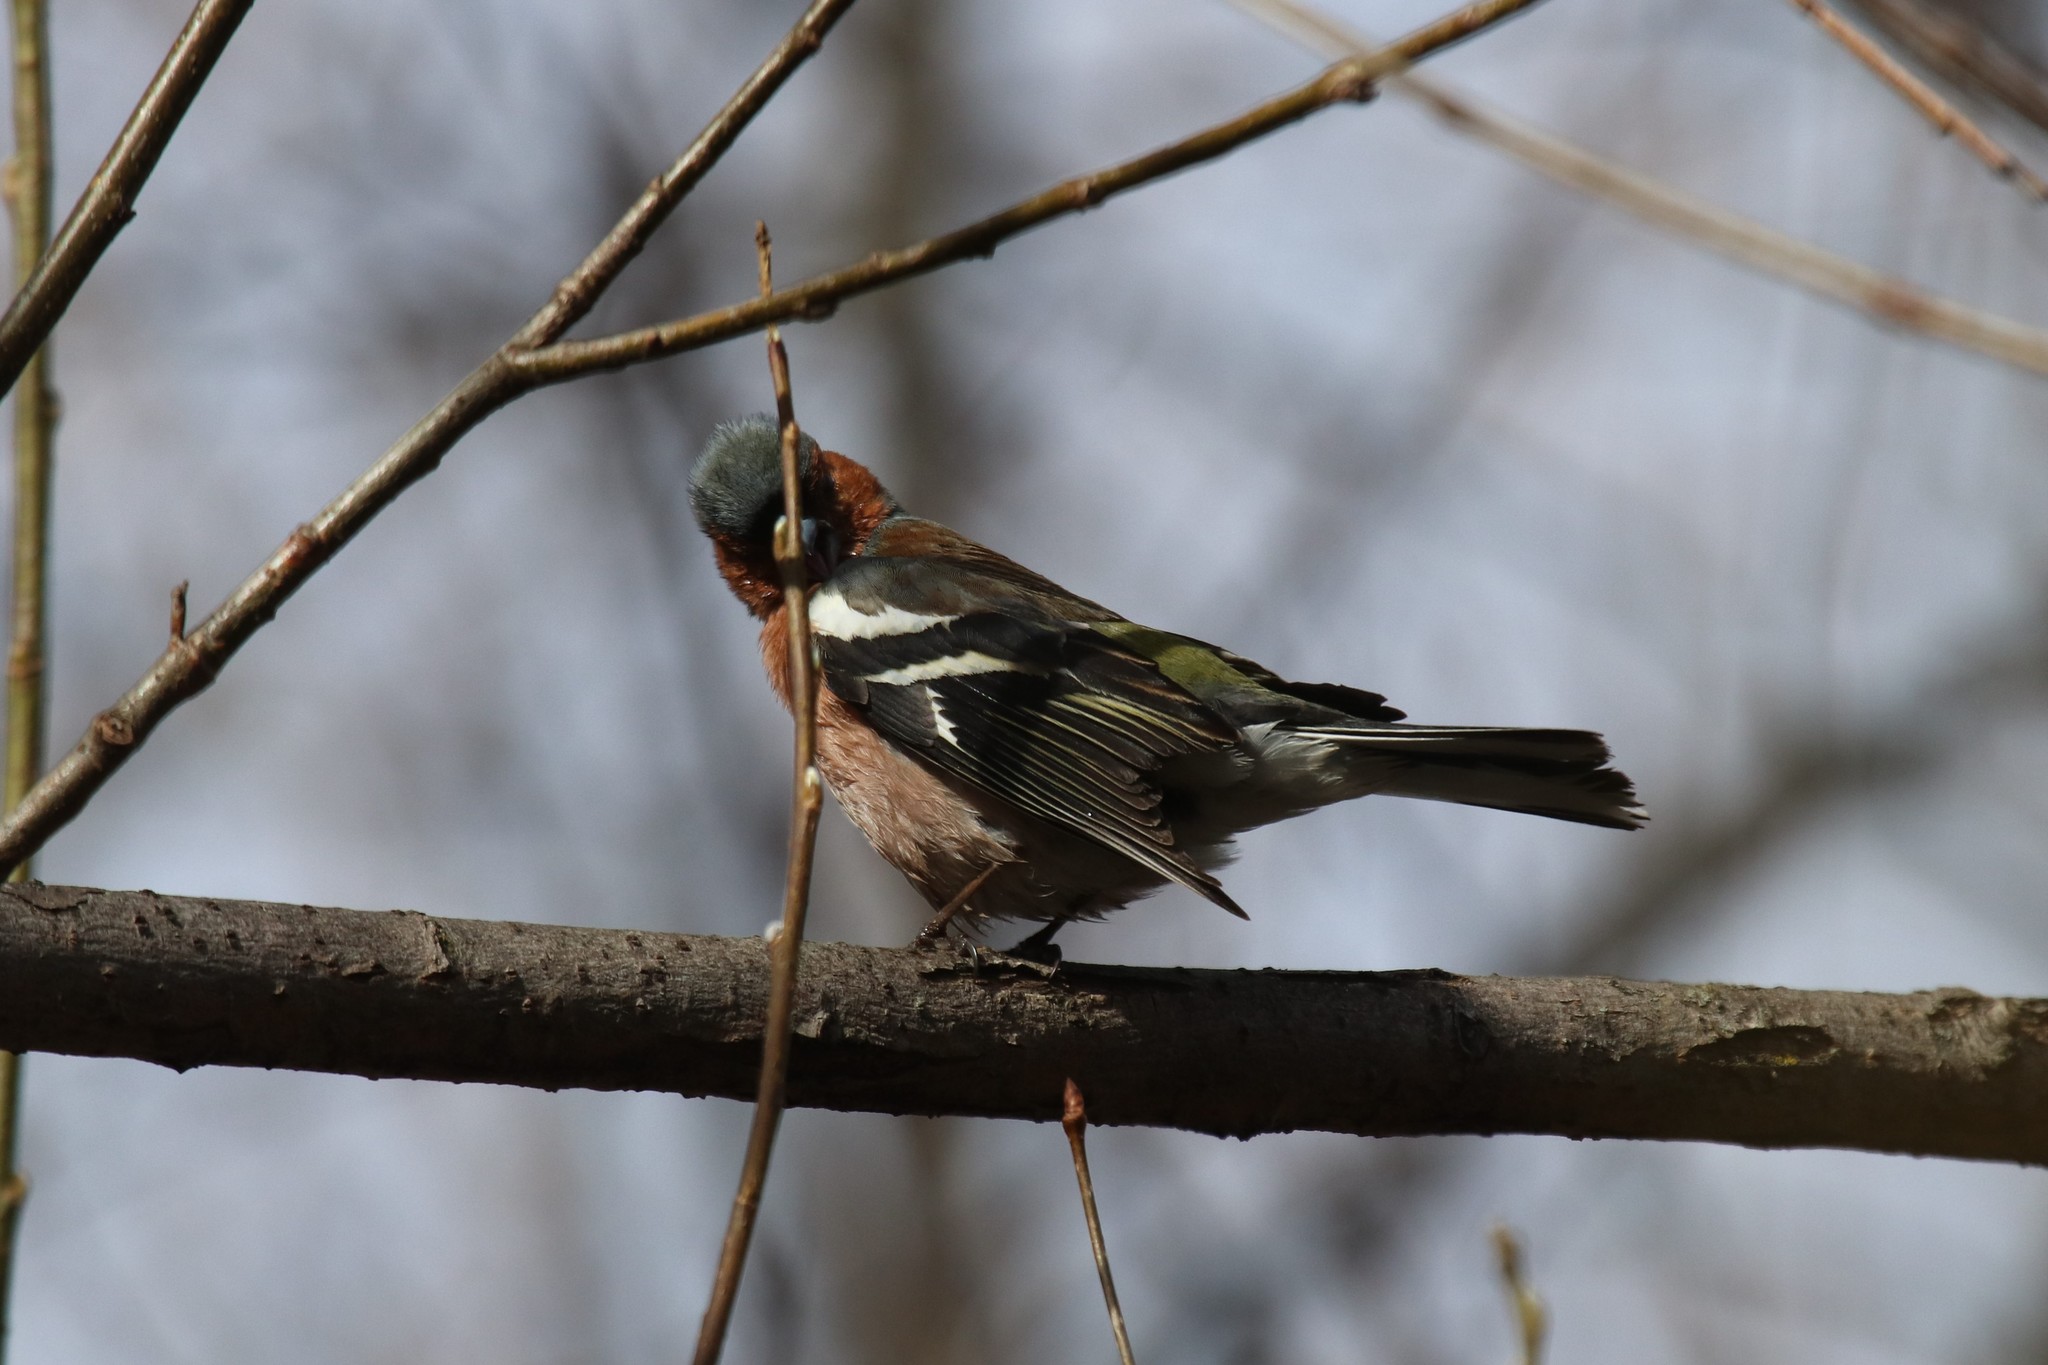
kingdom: Animalia
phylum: Chordata
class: Aves
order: Passeriformes
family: Fringillidae
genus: Fringilla
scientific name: Fringilla coelebs
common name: Common chaffinch
